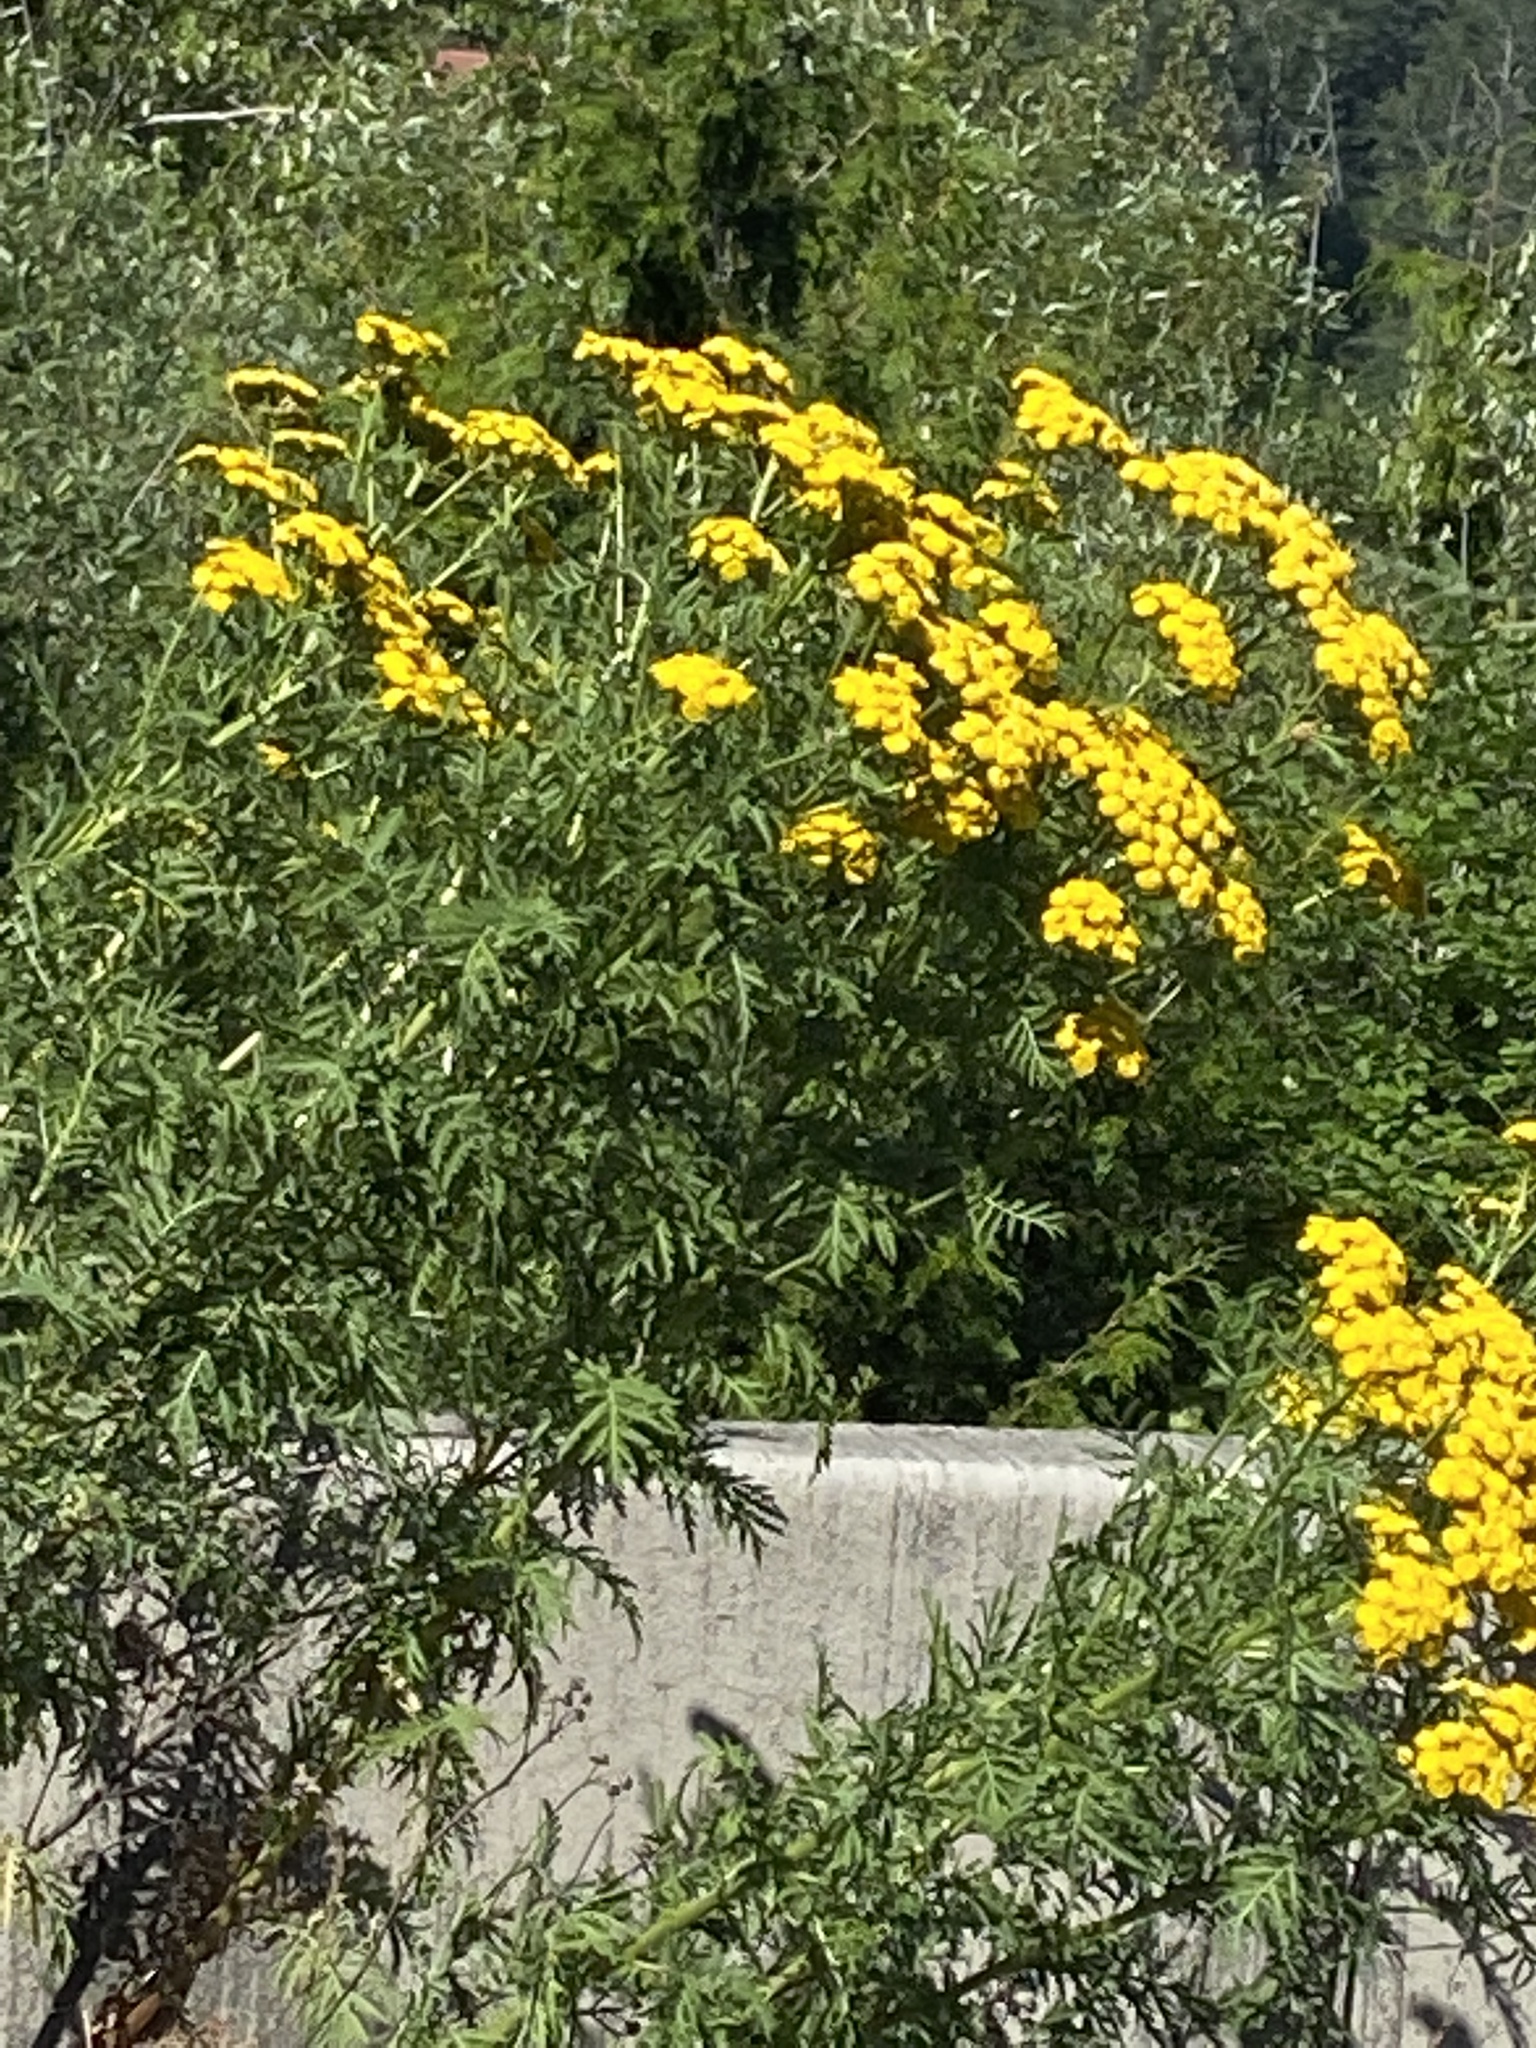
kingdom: Plantae
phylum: Tracheophyta
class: Magnoliopsida
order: Asterales
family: Asteraceae
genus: Tanacetum
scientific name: Tanacetum vulgare
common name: Common tansy
